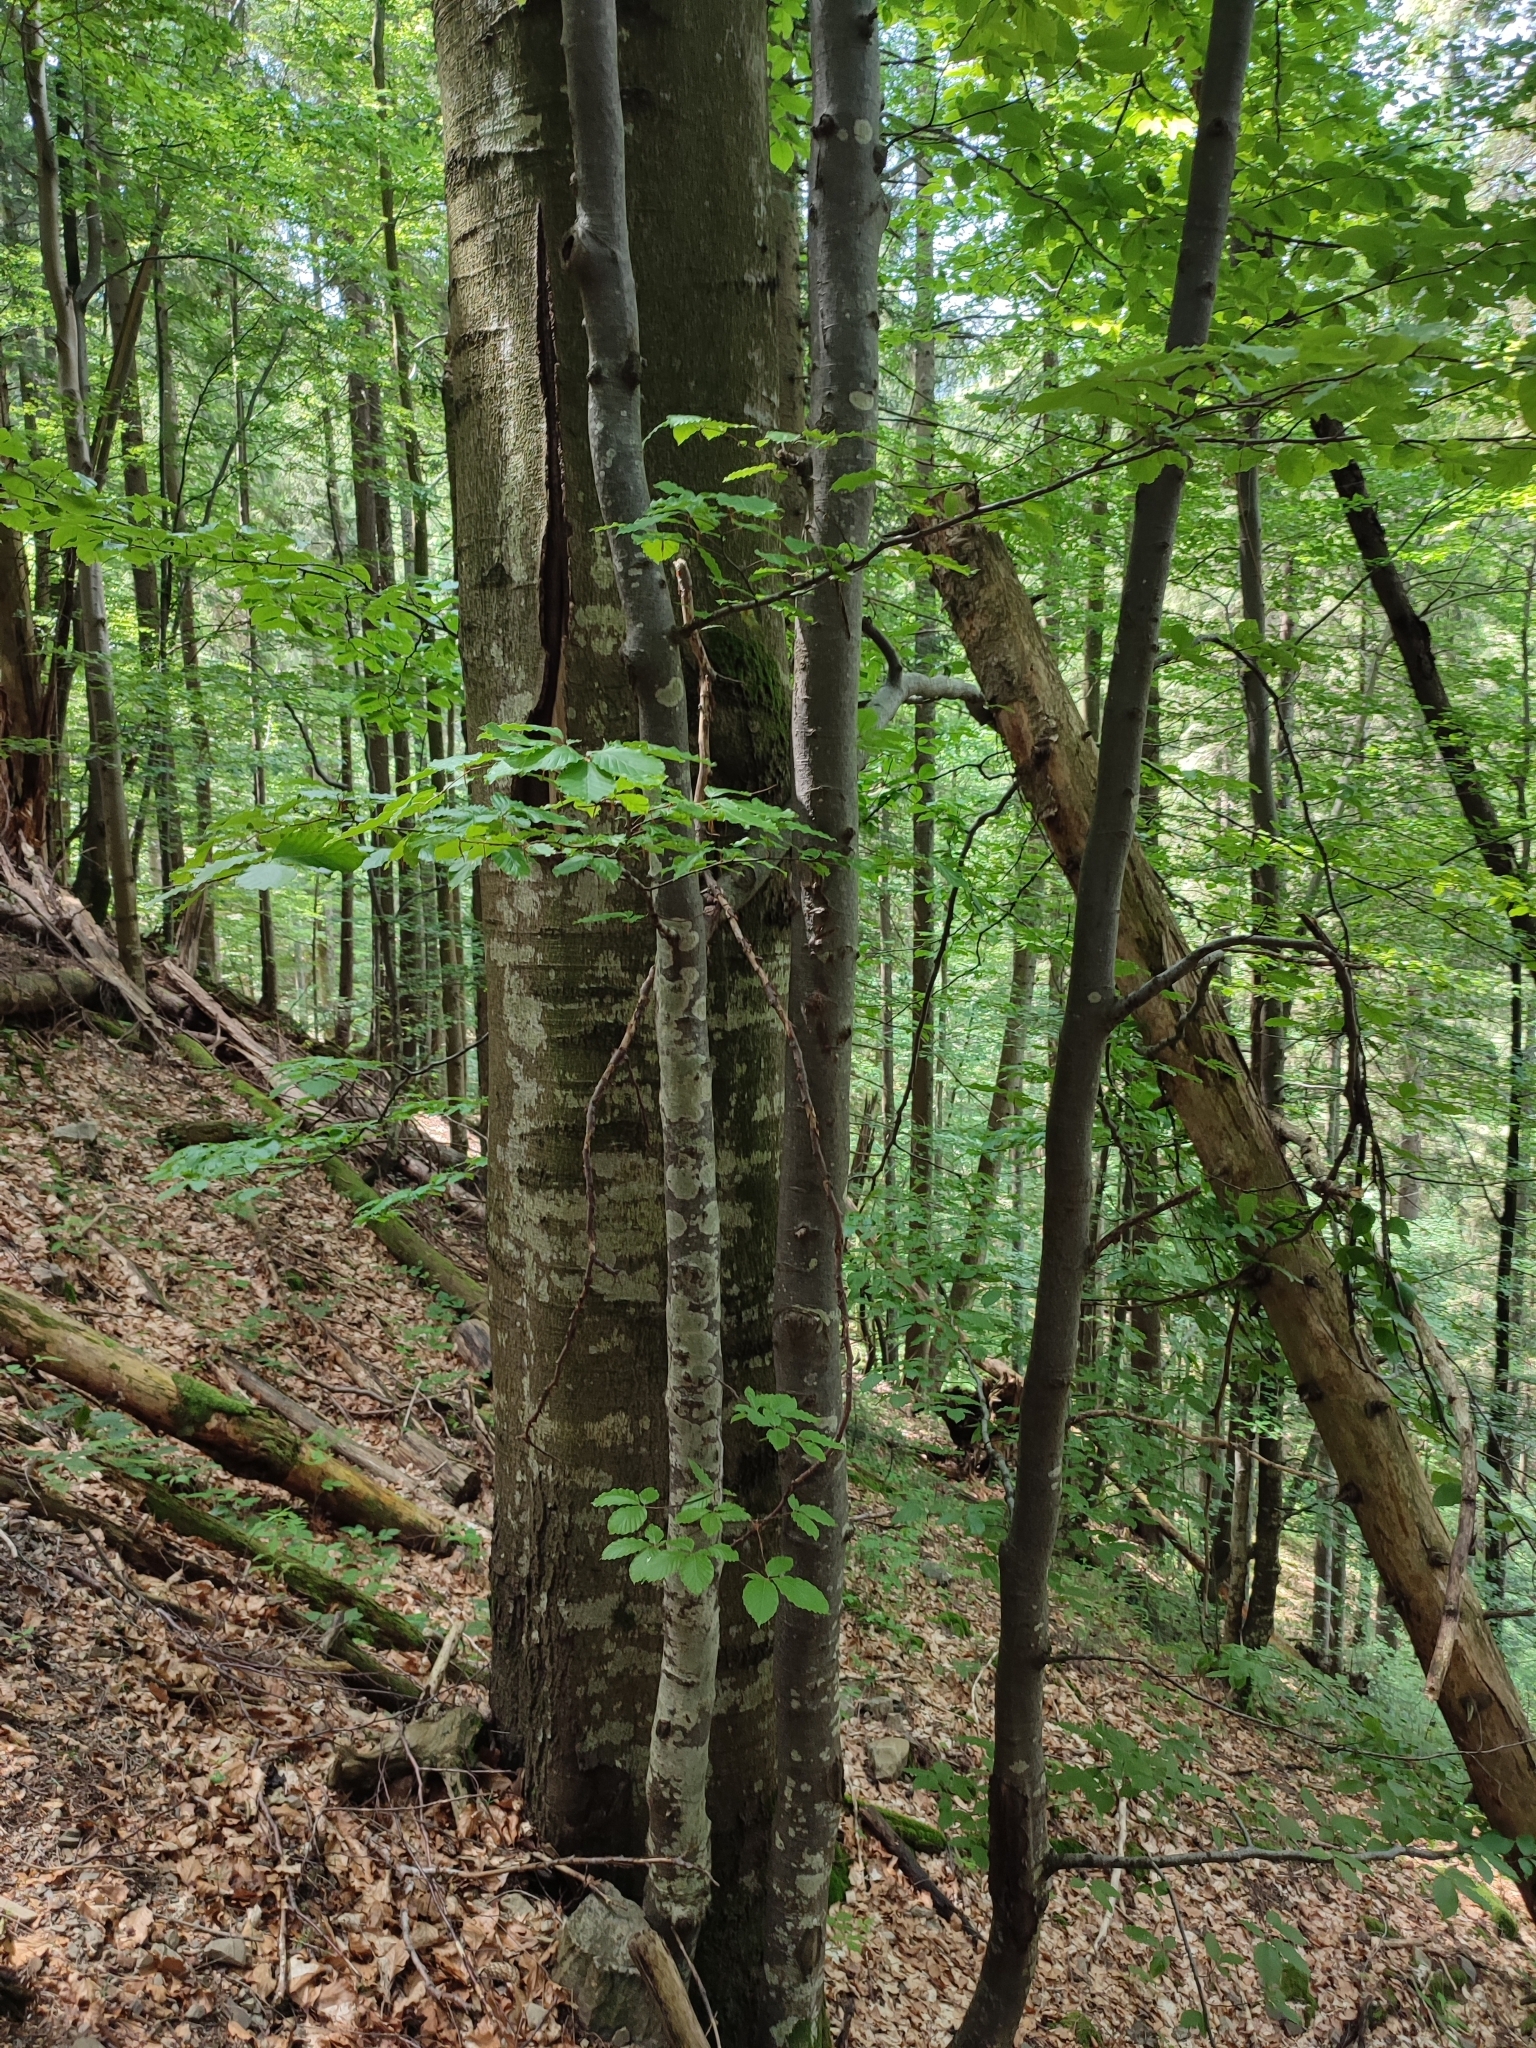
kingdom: Plantae
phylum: Tracheophyta
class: Magnoliopsida
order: Fagales
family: Fagaceae
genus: Fagus
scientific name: Fagus sylvatica
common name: Beech
